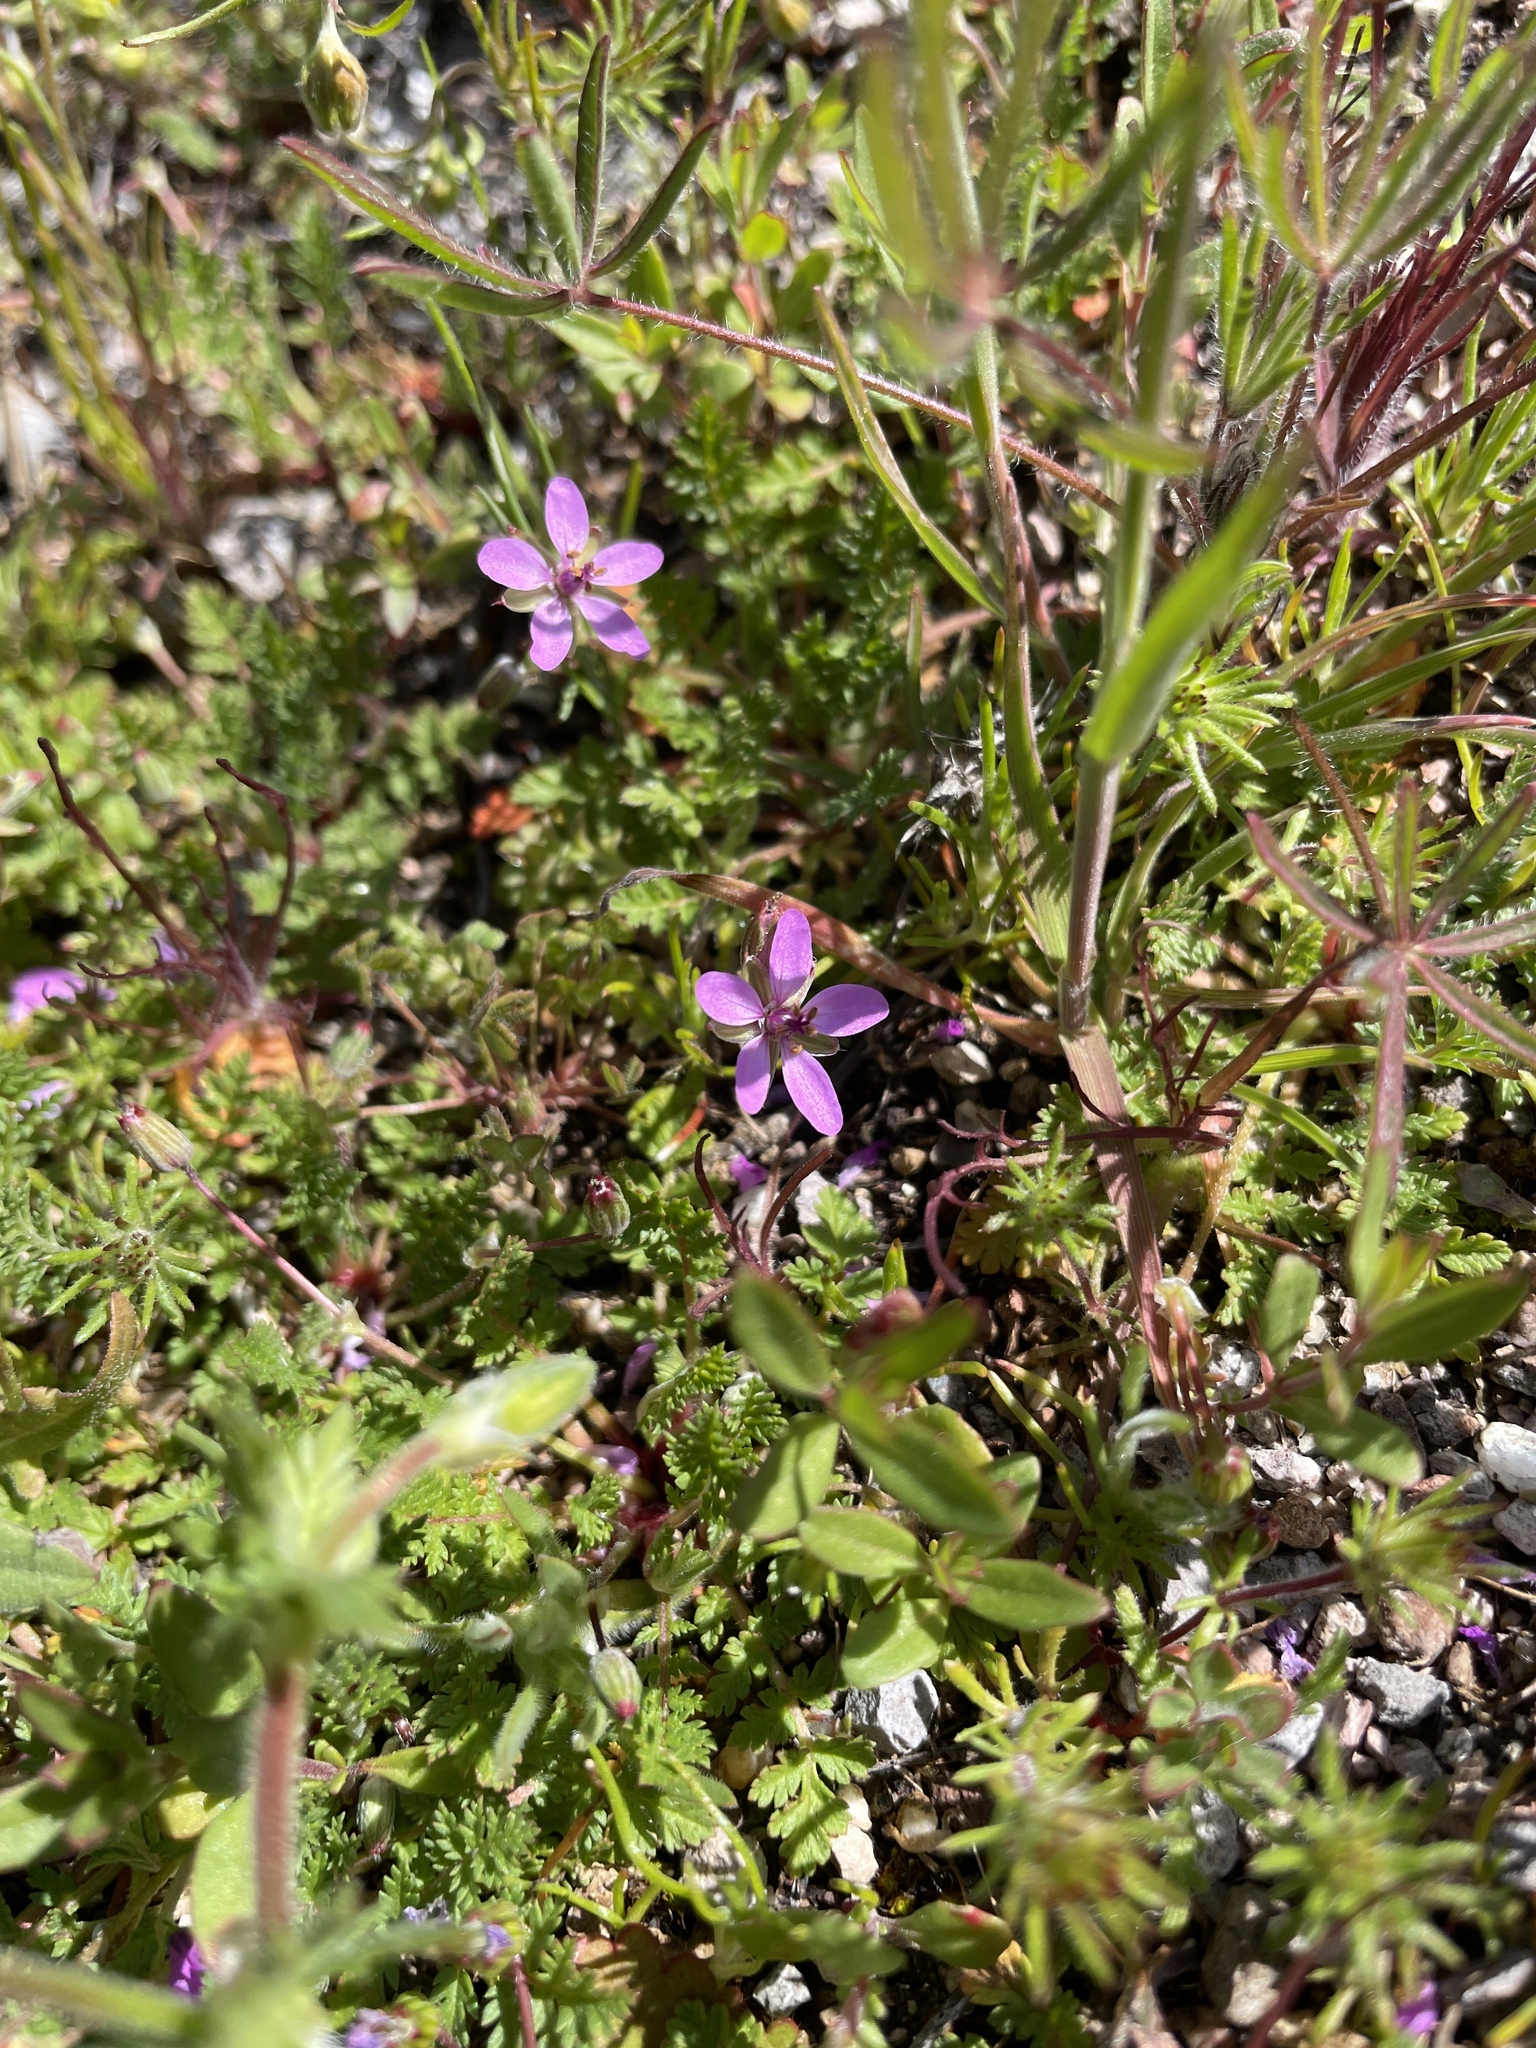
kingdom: Plantae
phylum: Tracheophyta
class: Magnoliopsida
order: Geraniales
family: Geraniaceae
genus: Erodium
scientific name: Erodium cicutarium
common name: Common stork's-bill
